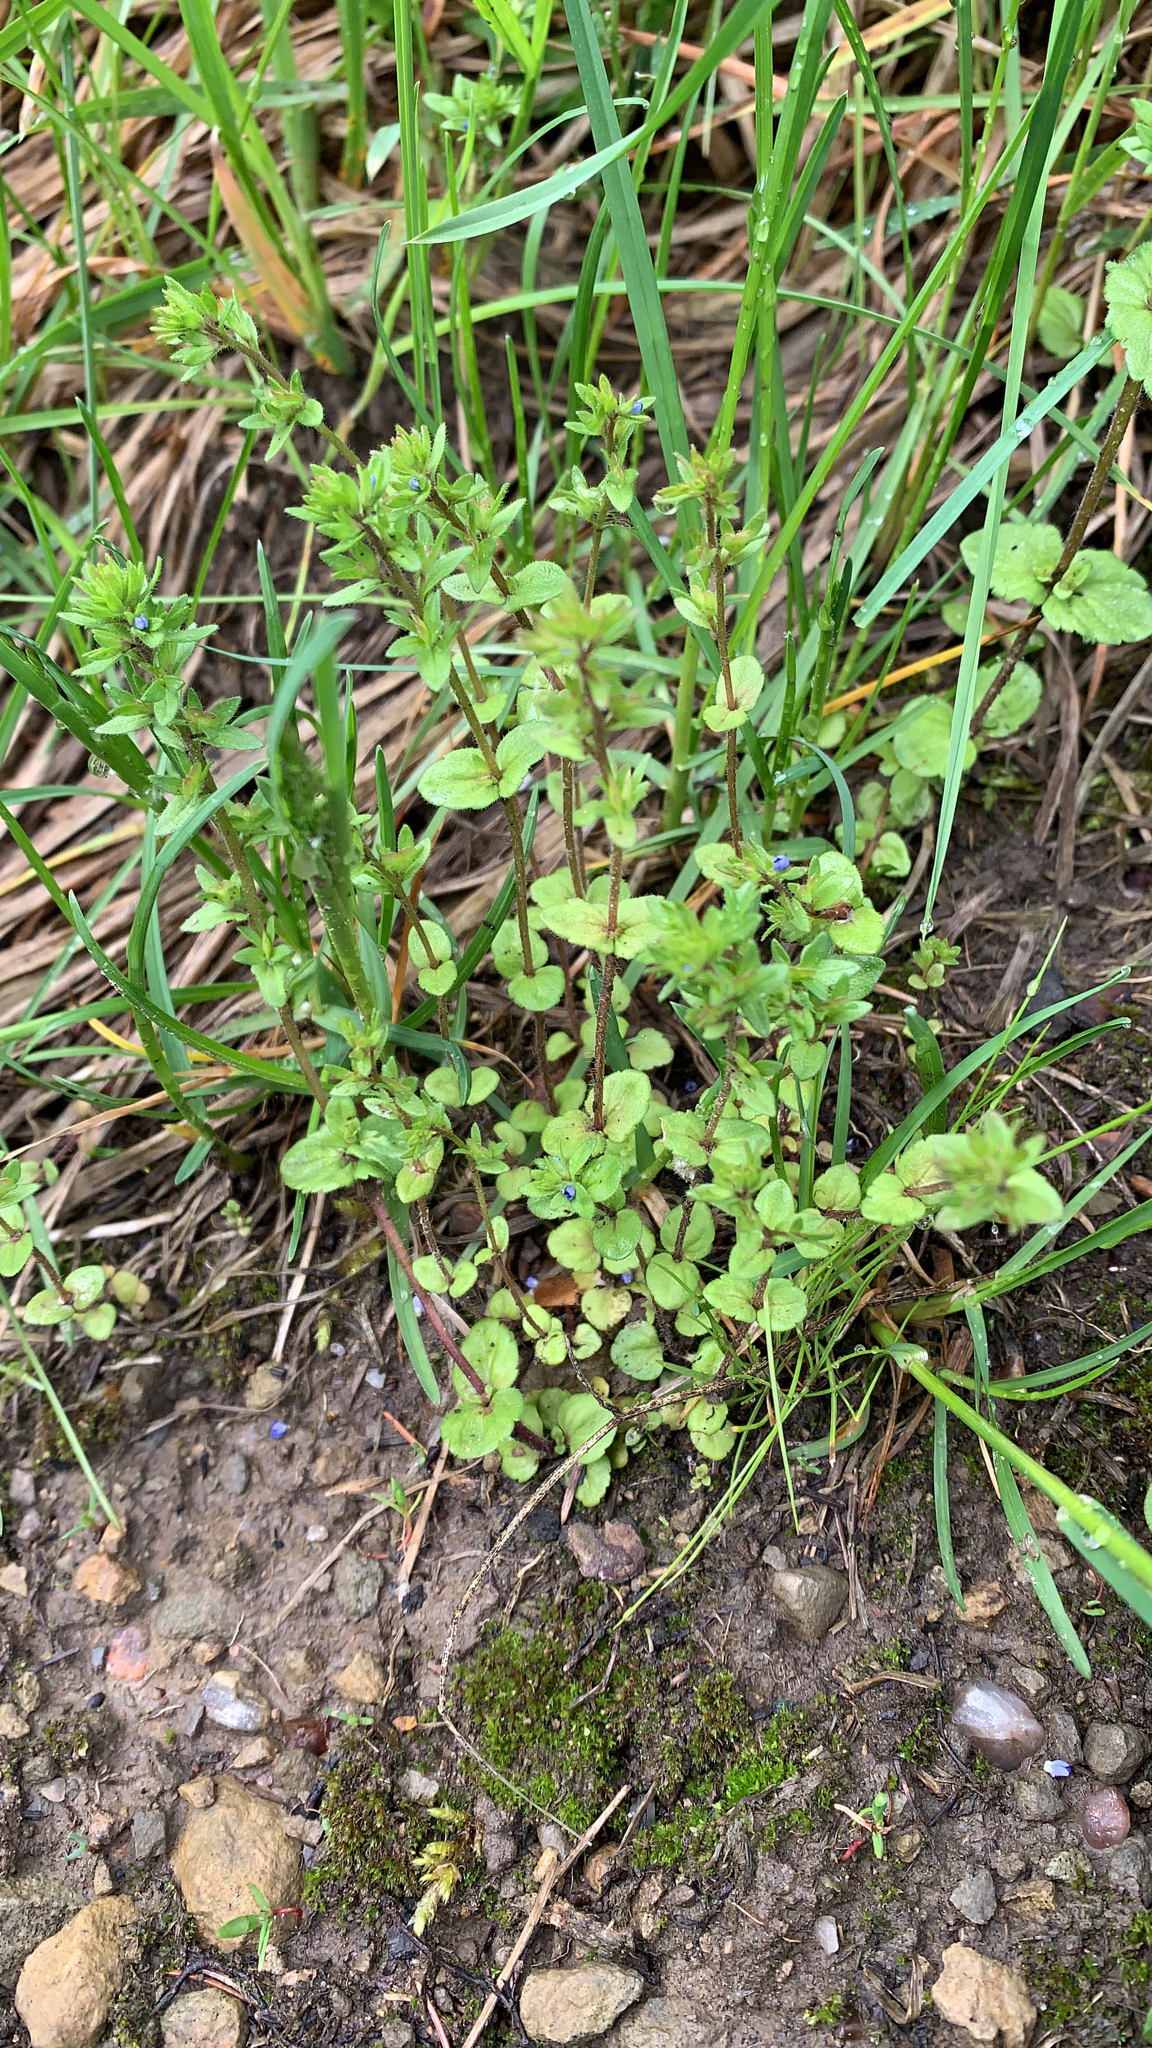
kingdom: Plantae
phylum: Tracheophyta
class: Magnoliopsida
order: Lamiales
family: Plantaginaceae
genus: Veronica
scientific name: Veronica arvensis
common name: Corn speedwell
